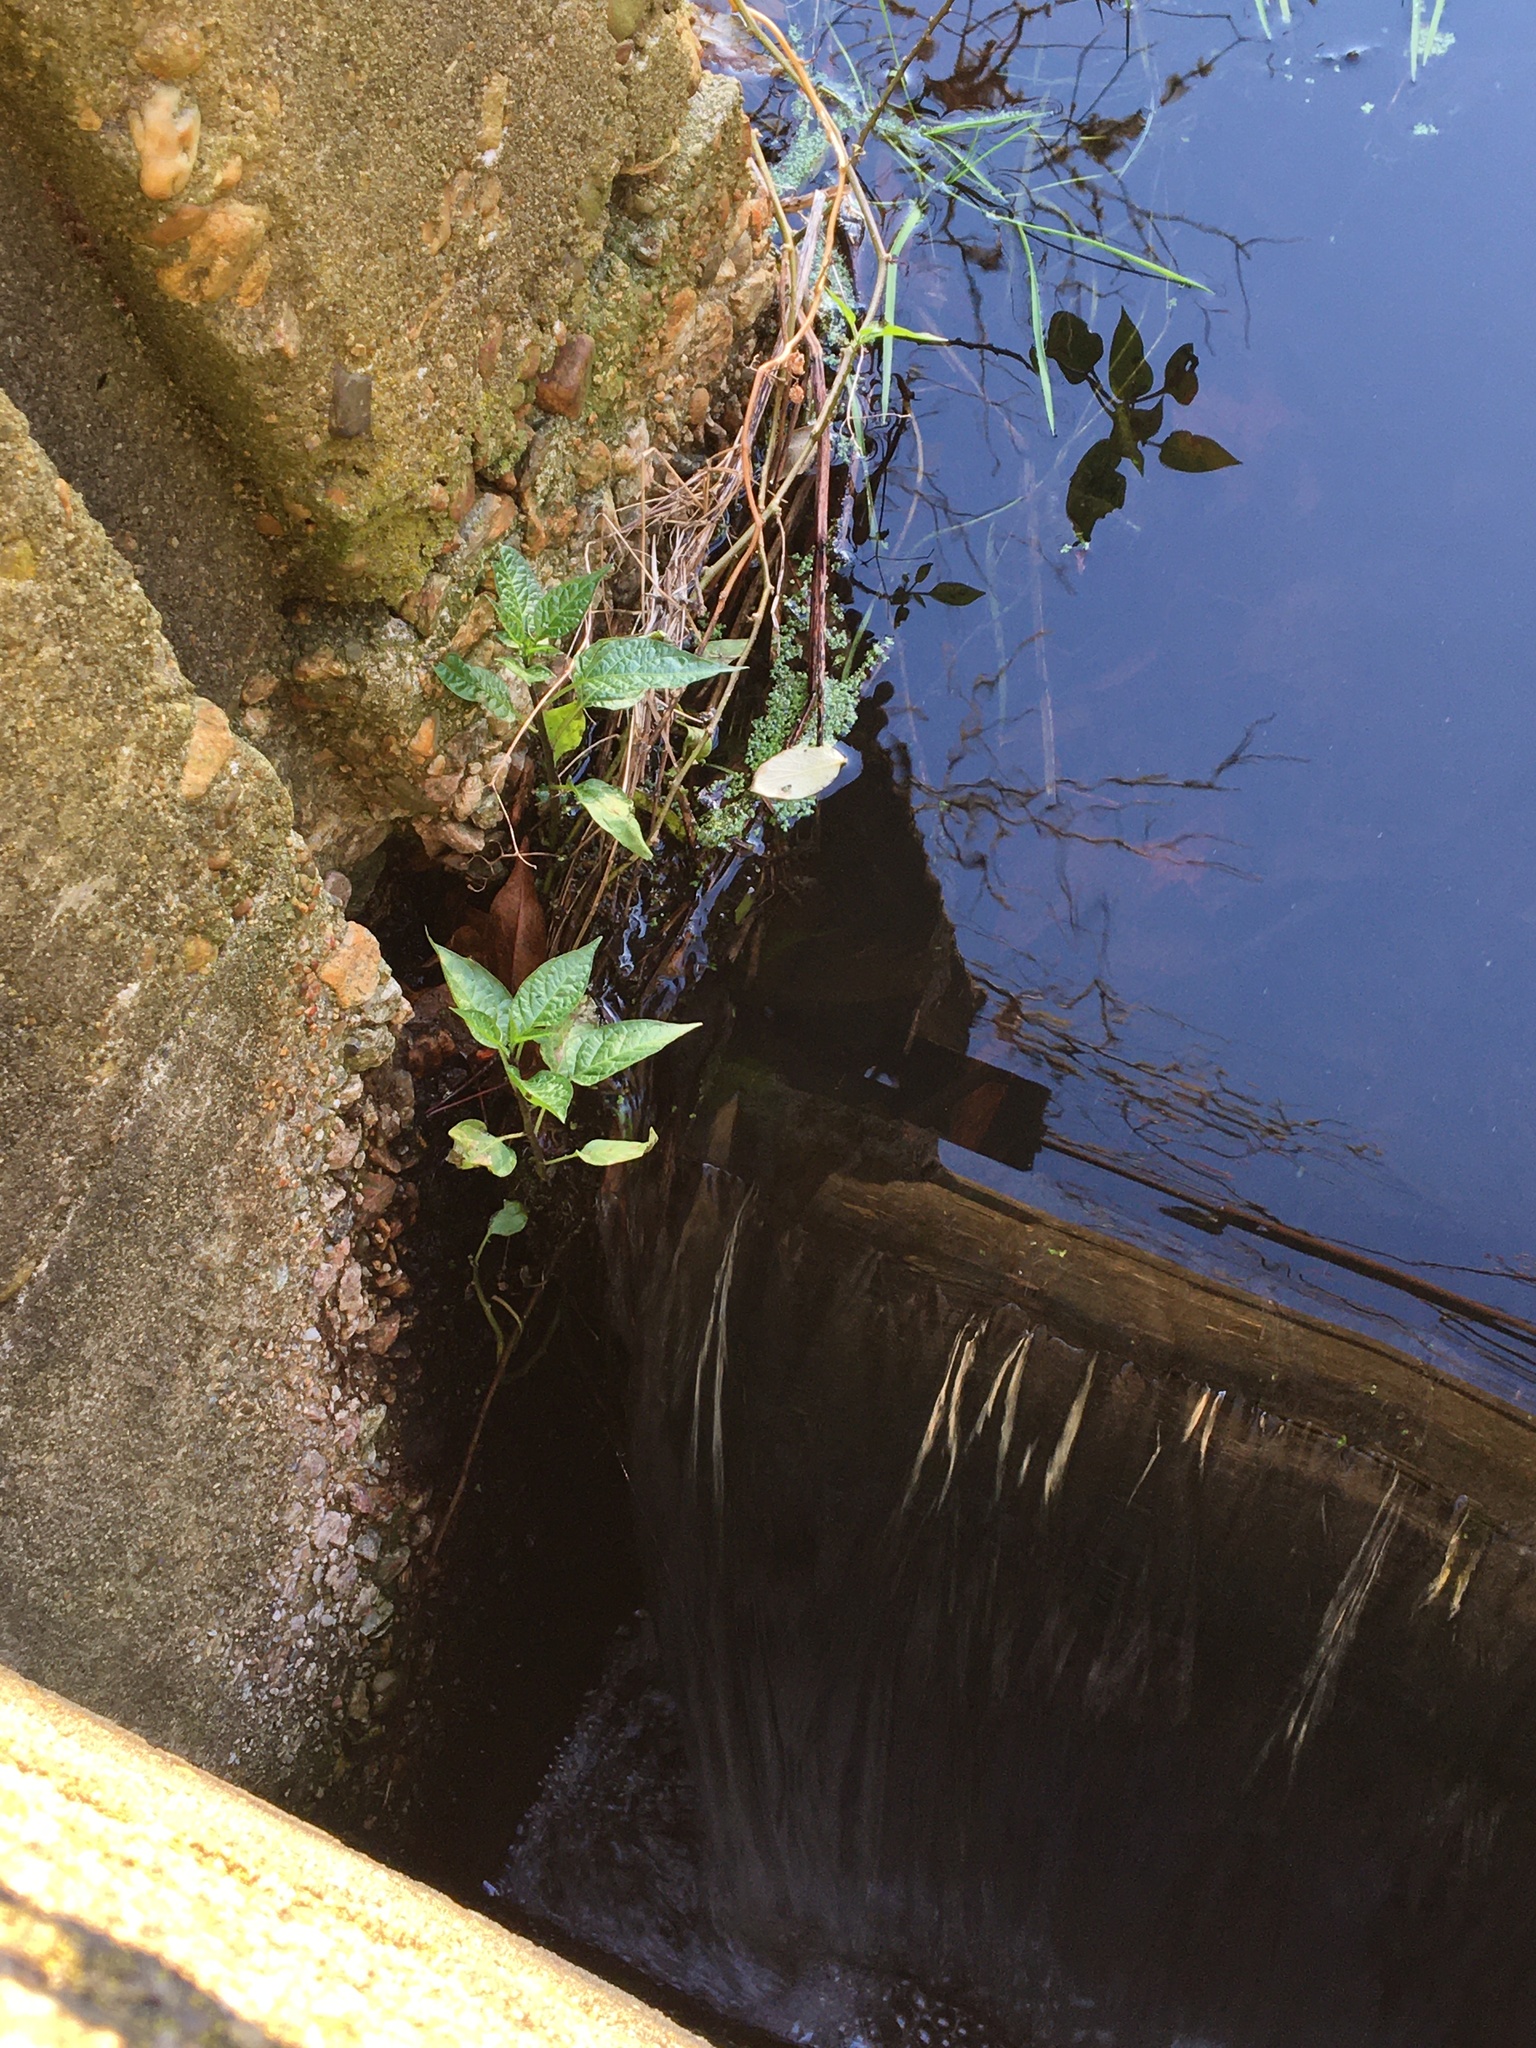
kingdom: Plantae
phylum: Tracheophyta
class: Magnoliopsida
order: Solanales
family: Solanaceae
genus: Solanum
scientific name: Solanum dulcamara
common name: Climbing nightshade
